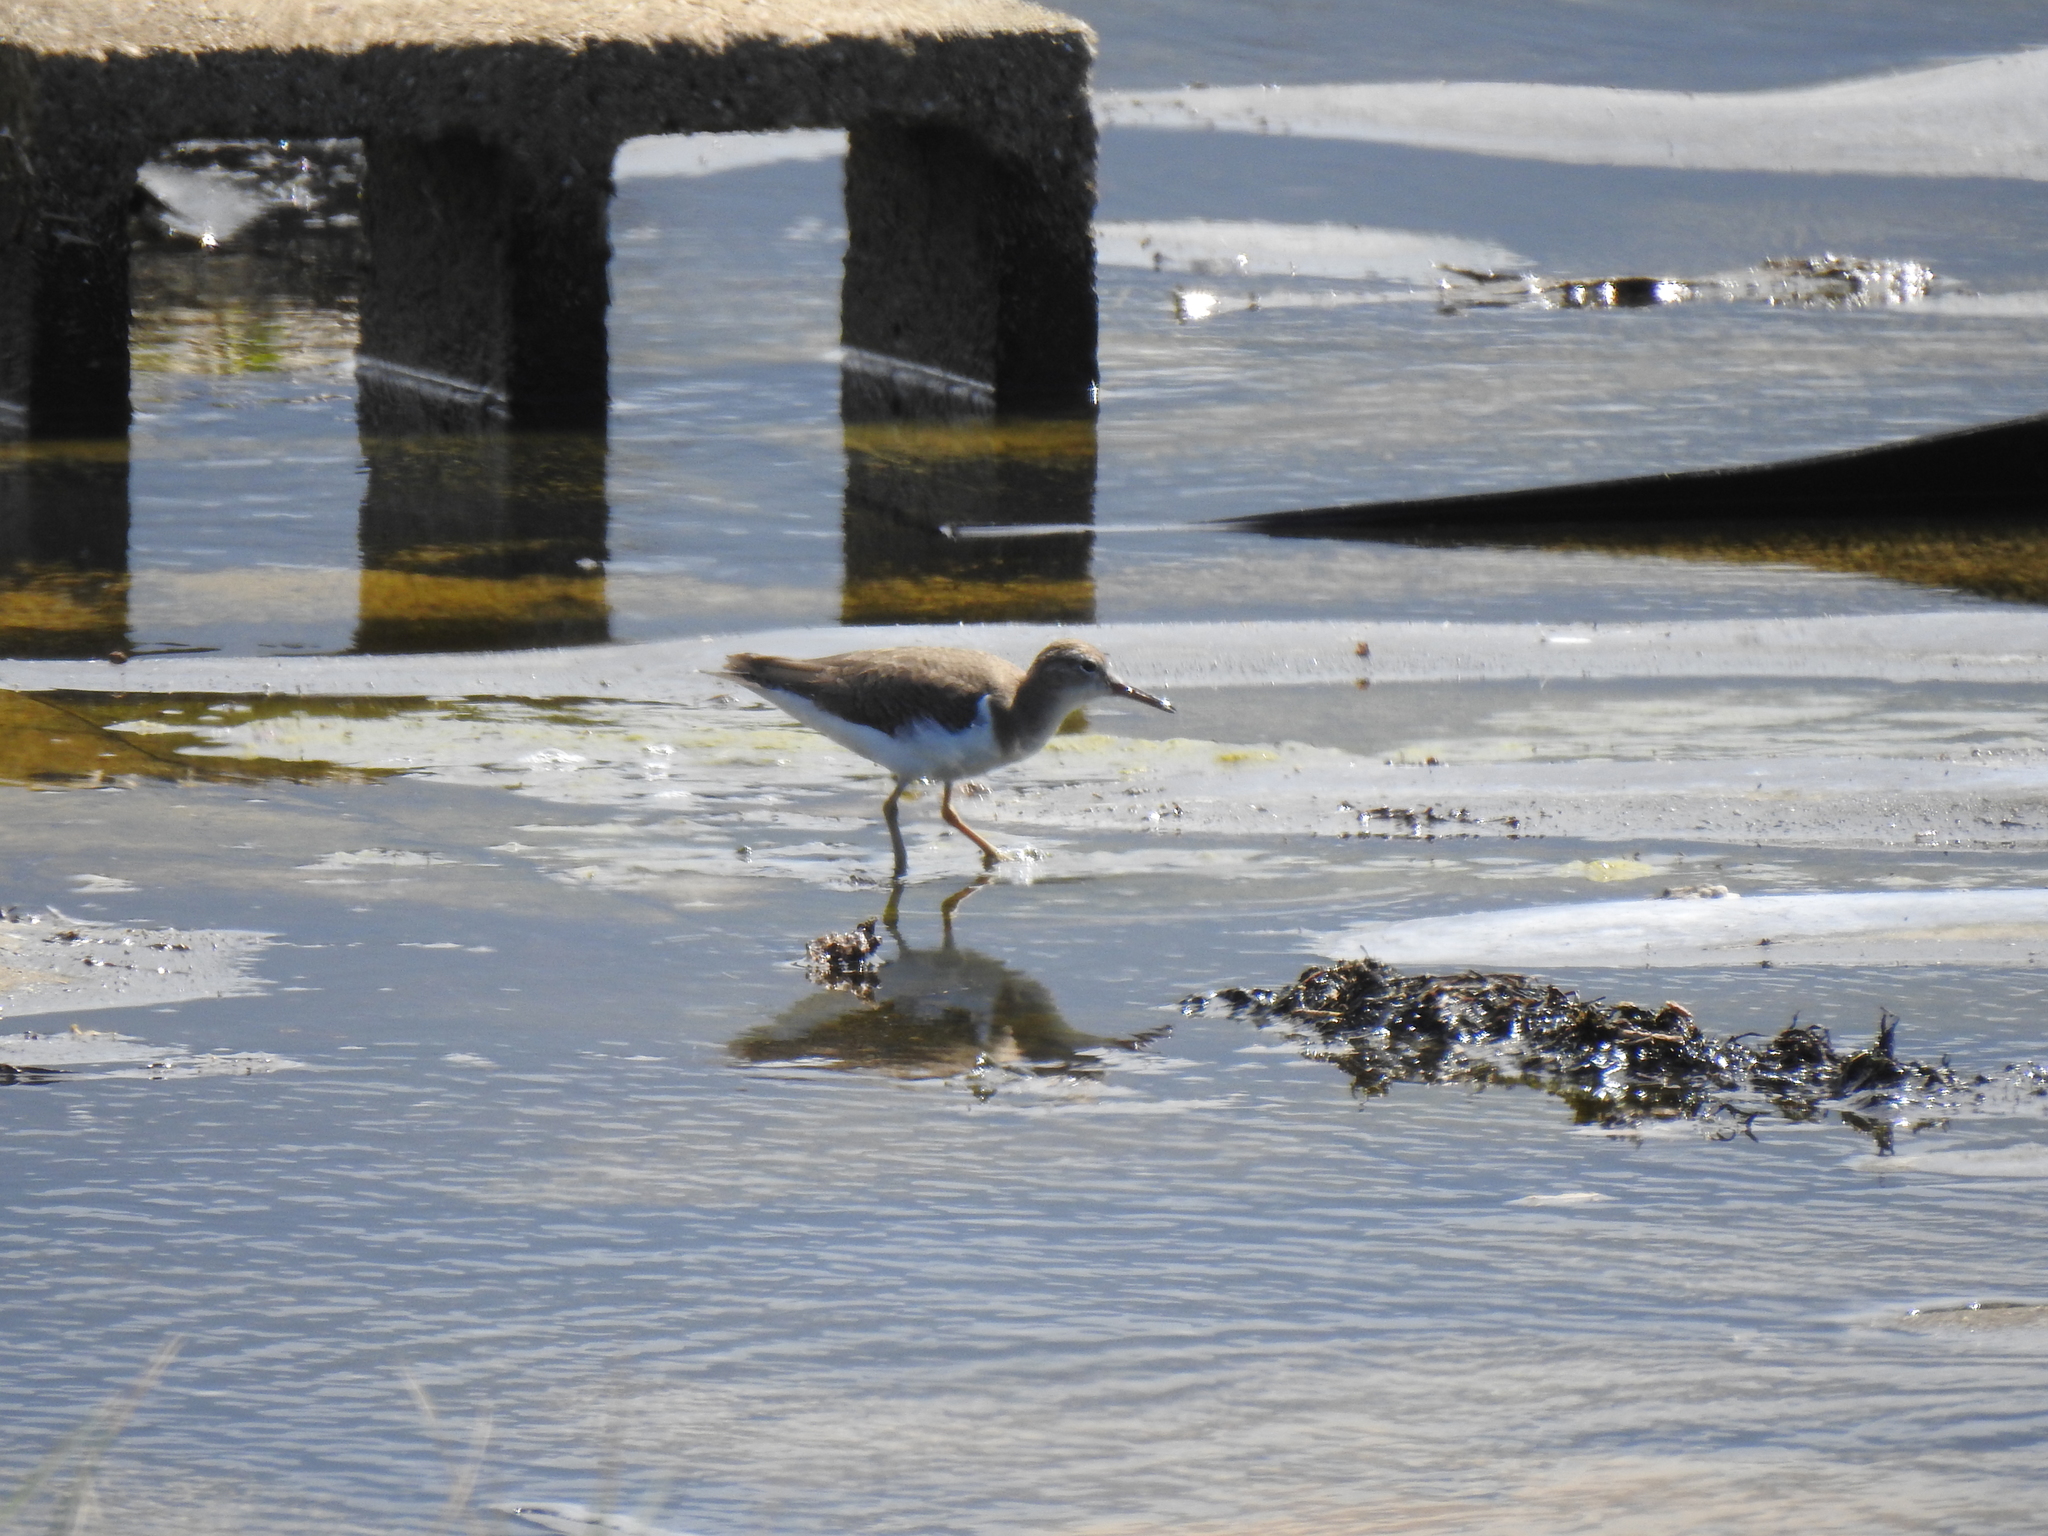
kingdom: Animalia
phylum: Chordata
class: Aves
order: Charadriiformes
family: Scolopacidae
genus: Actitis
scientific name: Actitis macularius
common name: Spotted sandpiper
